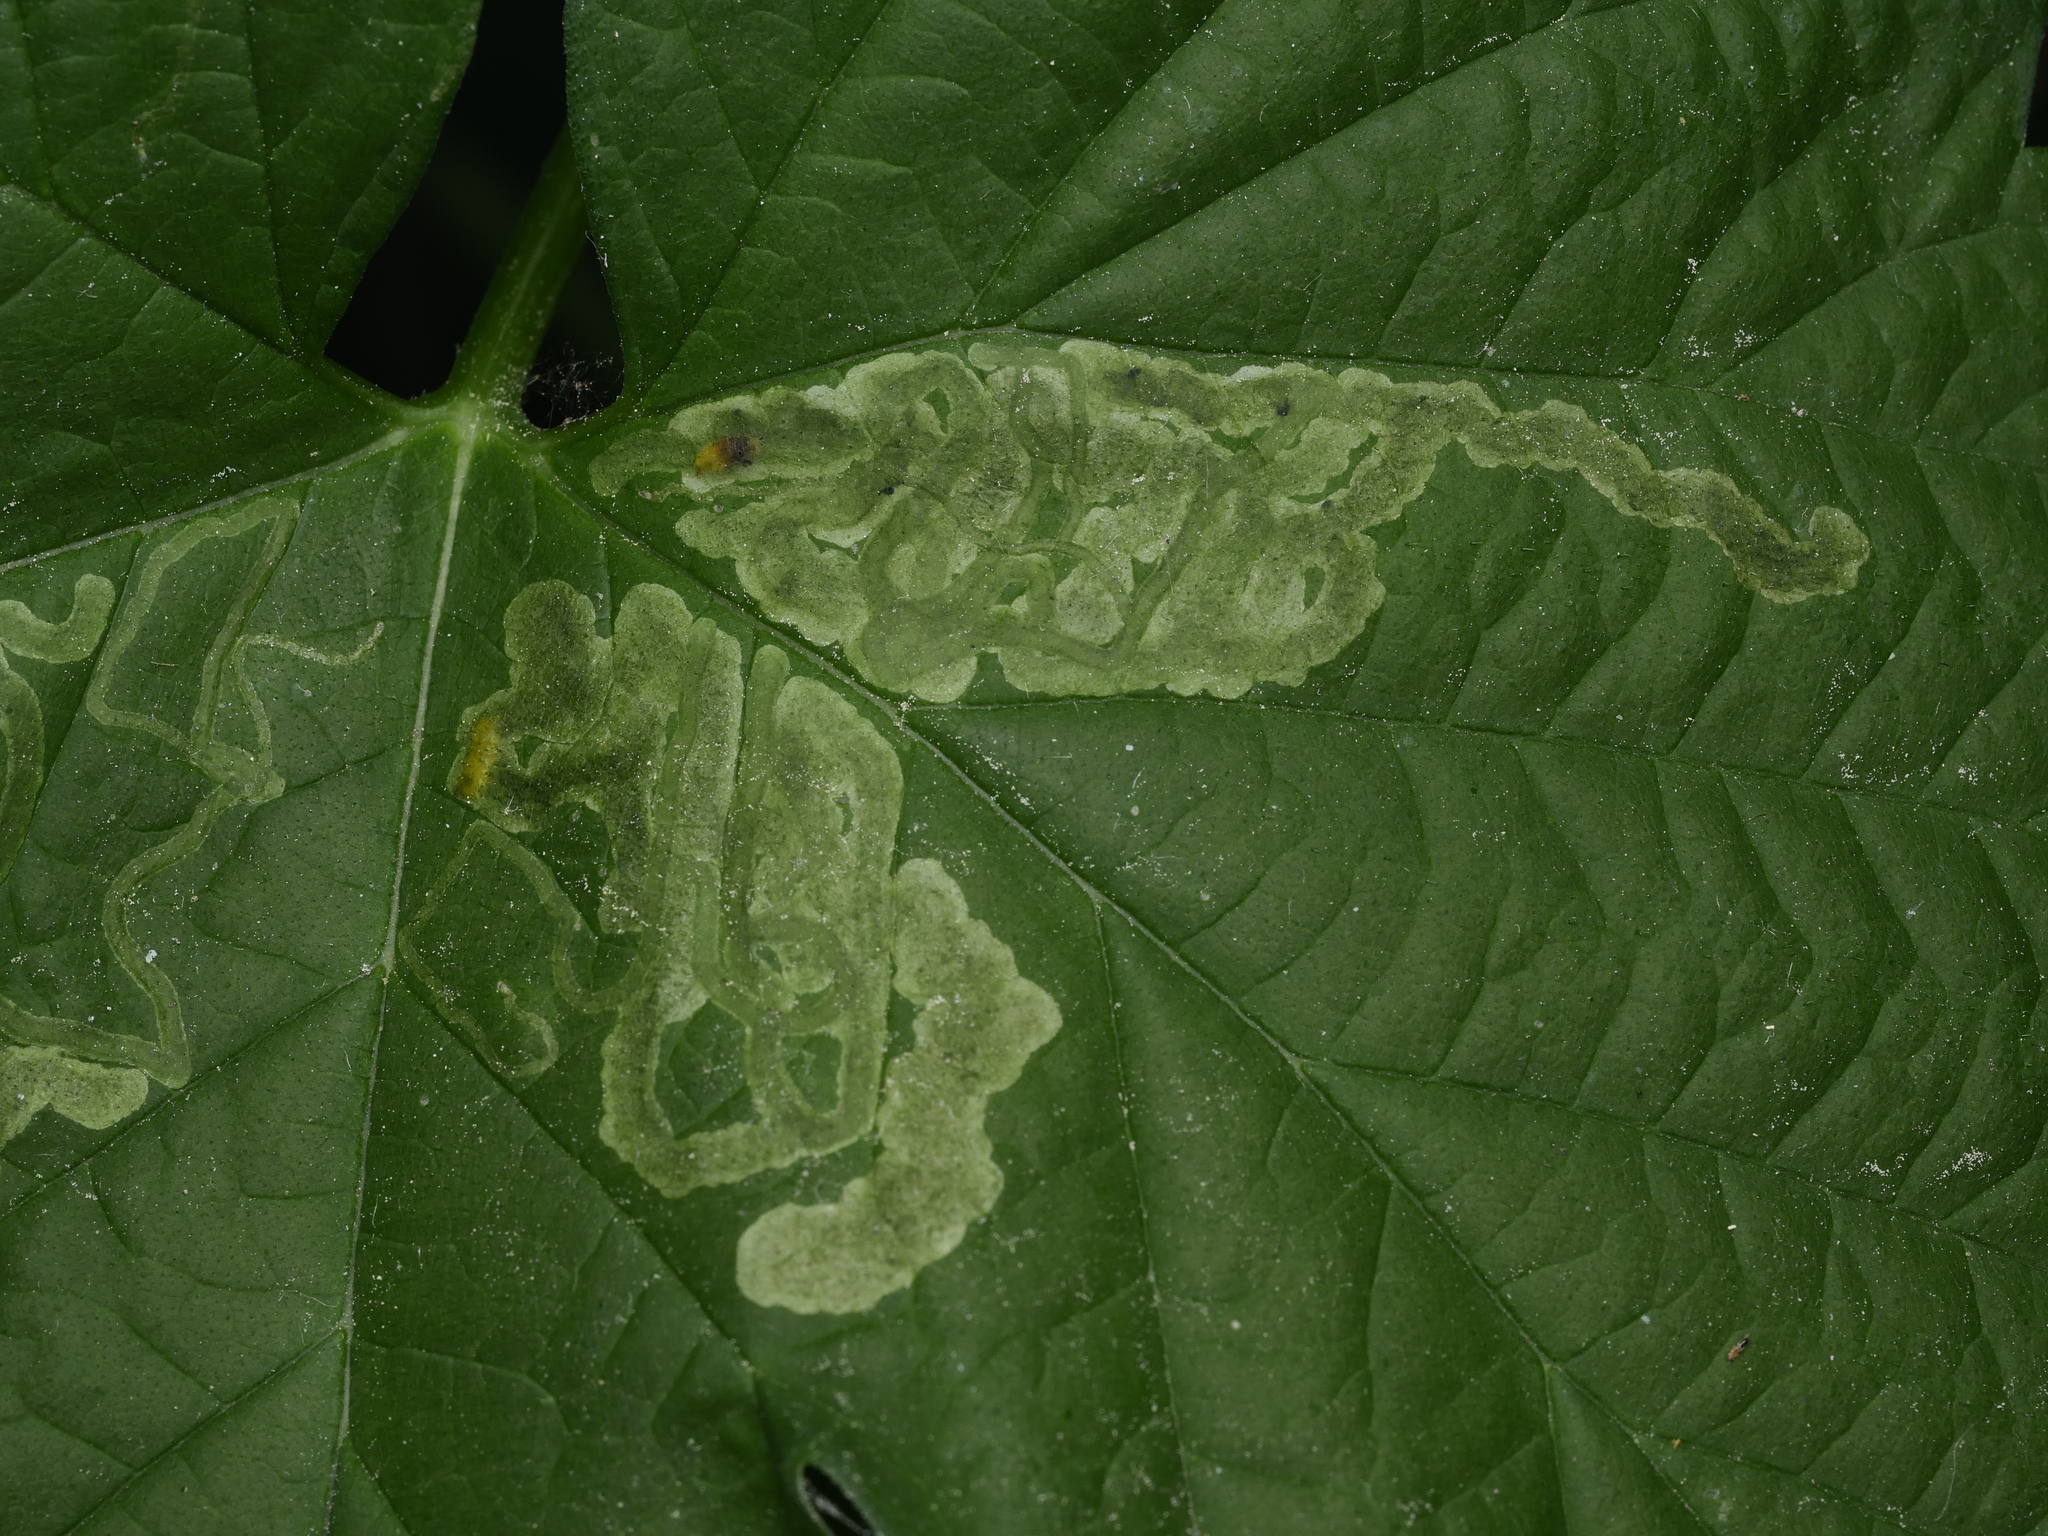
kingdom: Animalia
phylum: Arthropoda
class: Insecta
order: Diptera
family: Agromyzidae
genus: Agromyza
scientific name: Agromyza flaviceps
